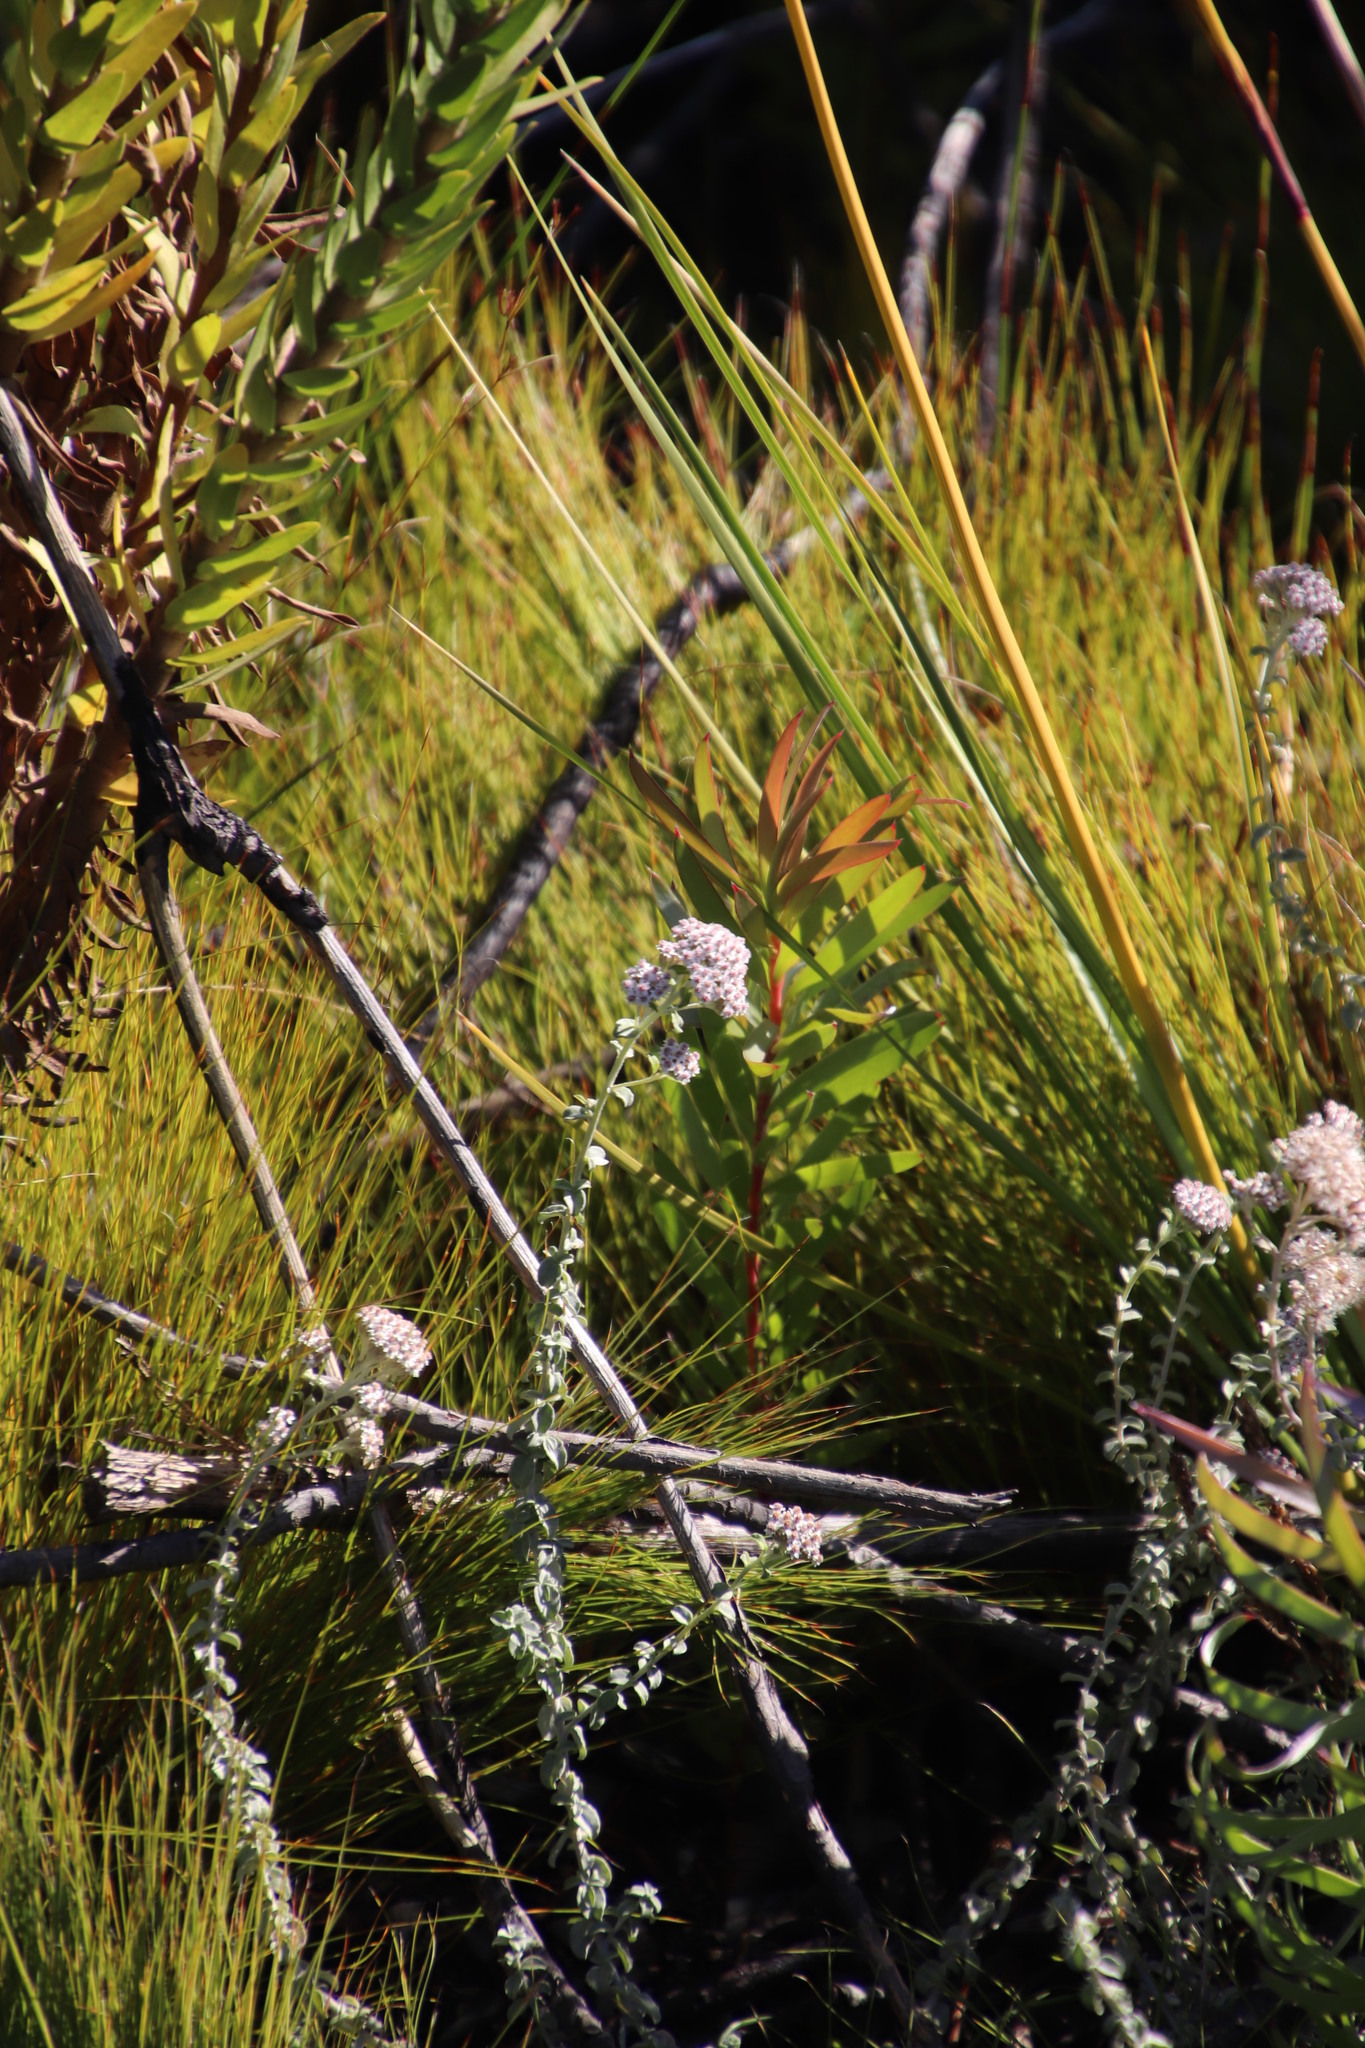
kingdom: Plantae
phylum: Tracheophyta
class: Magnoliopsida
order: Proteales
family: Proteaceae
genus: Leucadendron
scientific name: Leucadendron laureolum
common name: Golden sunshinebush
